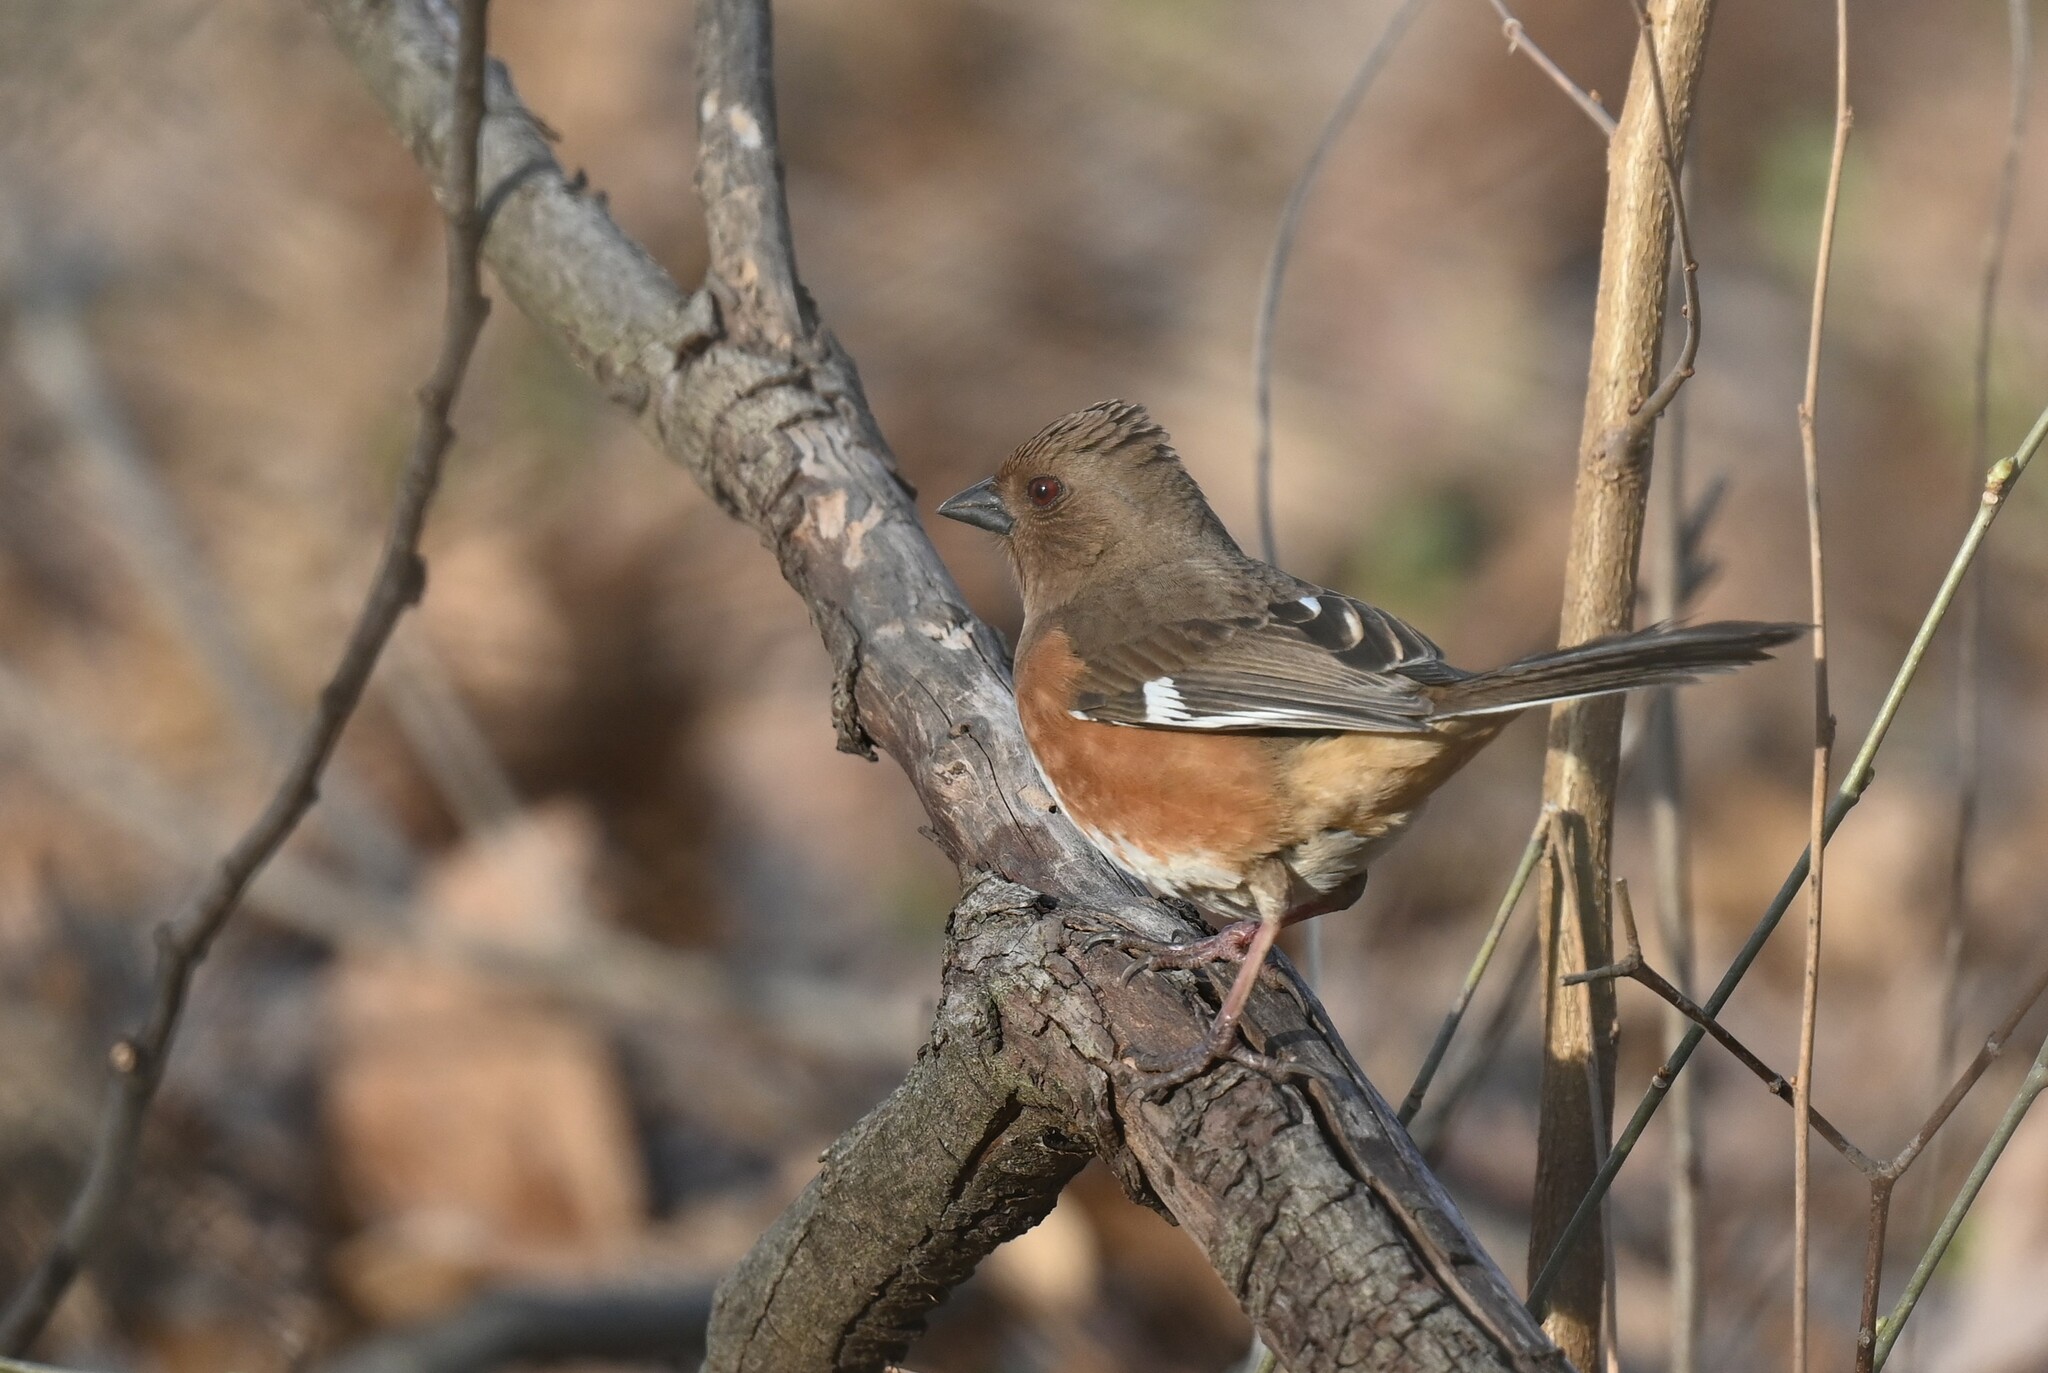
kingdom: Animalia
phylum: Chordata
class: Aves
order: Passeriformes
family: Passerellidae
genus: Pipilo
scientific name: Pipilo erythrophthalmus
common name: Eastern towhee
